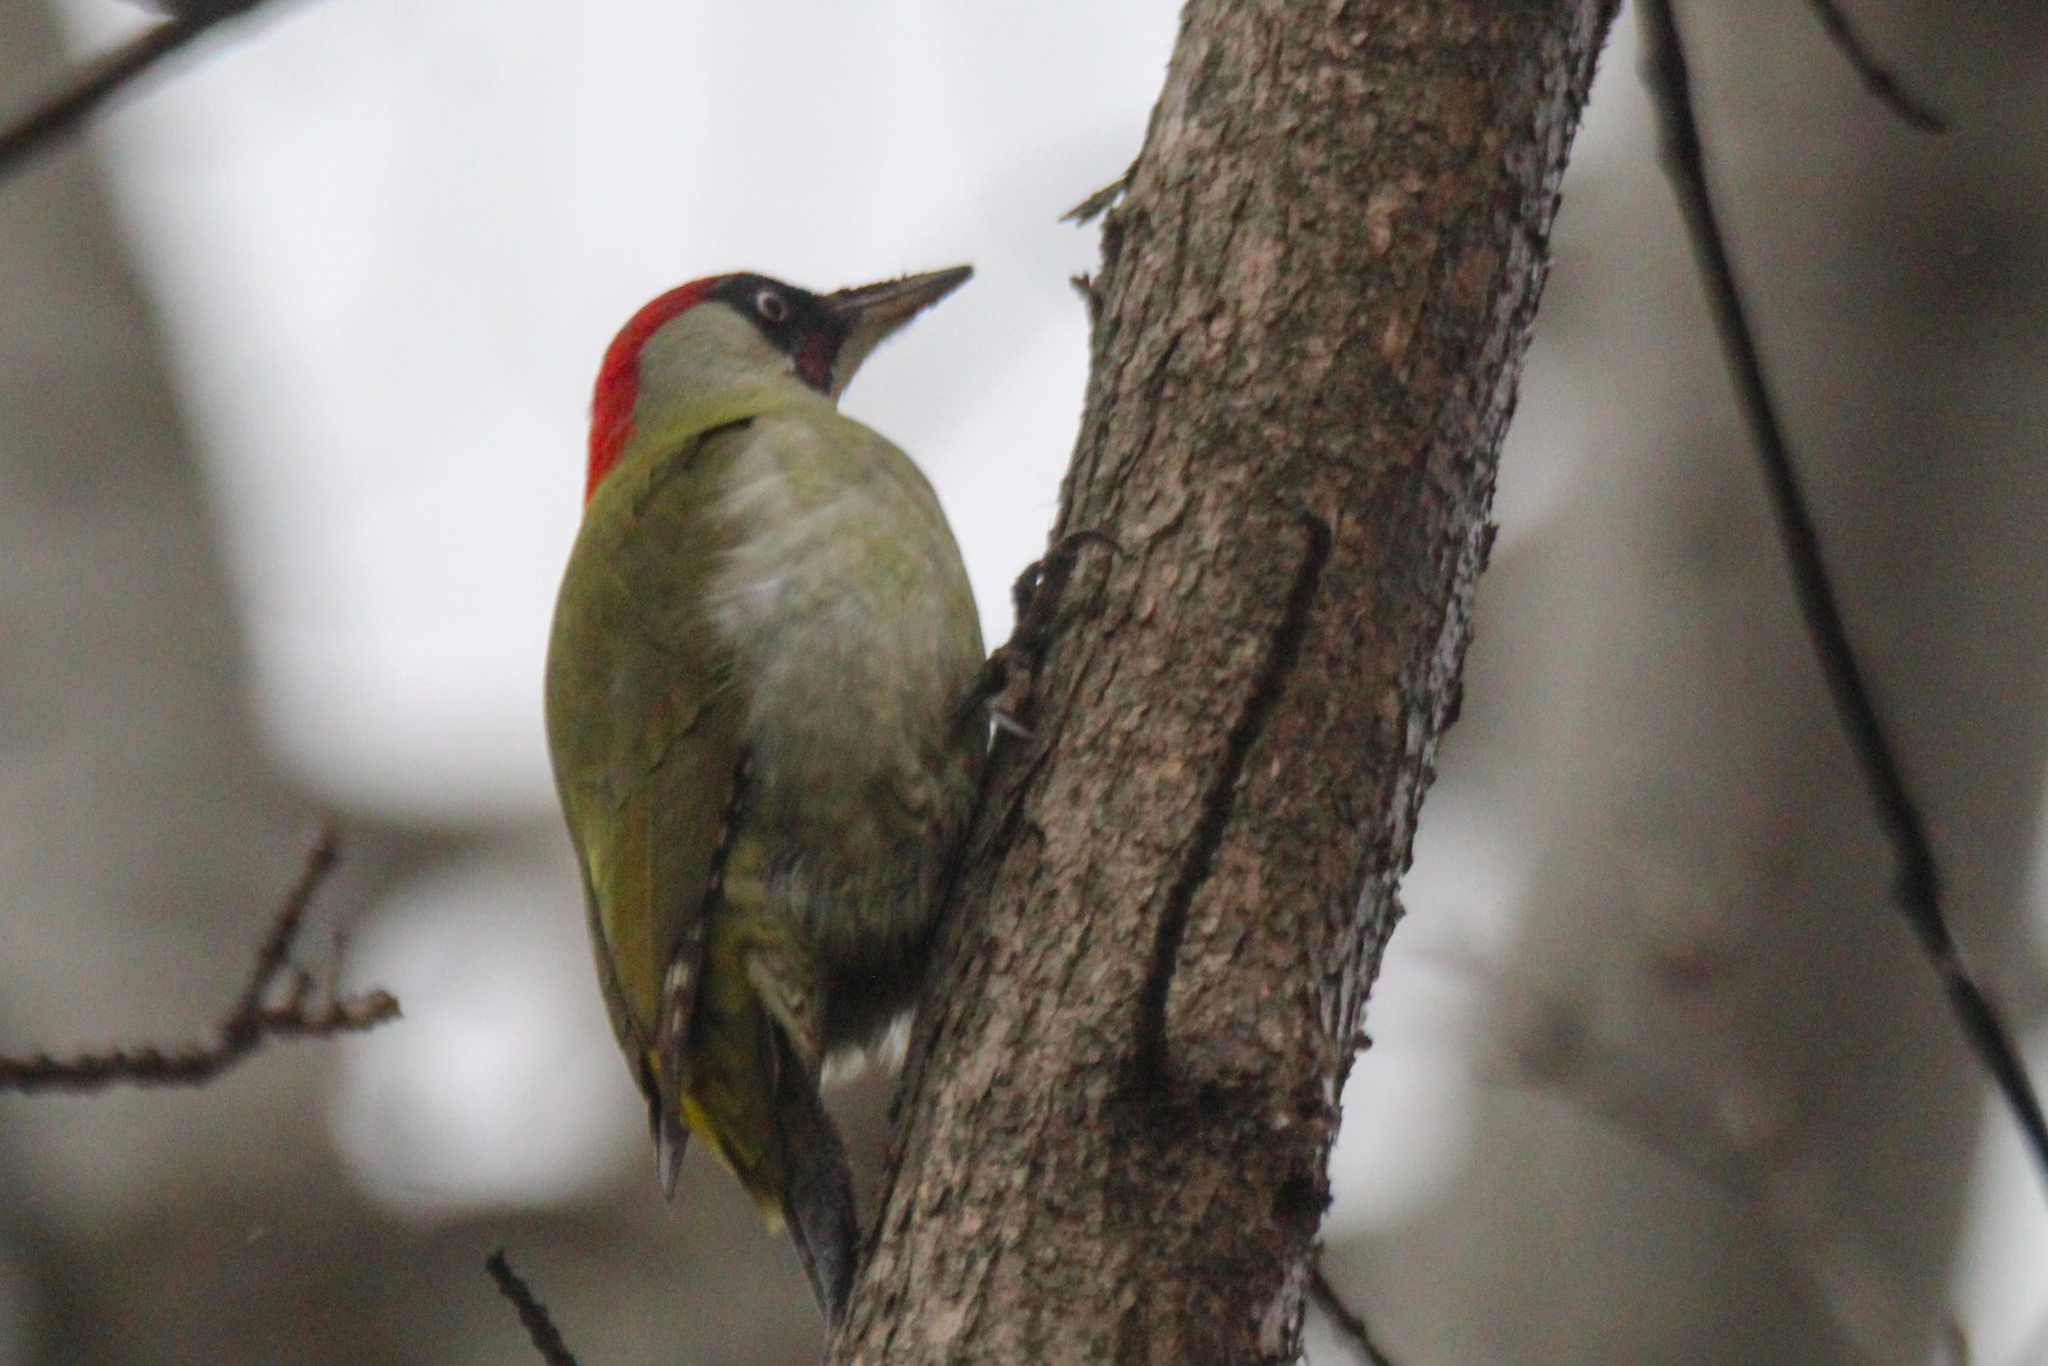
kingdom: Animalia
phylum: Chordata
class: Aves
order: Piciformes
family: Picidae
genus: Picus
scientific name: Picus viridis
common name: European green woodpecker
